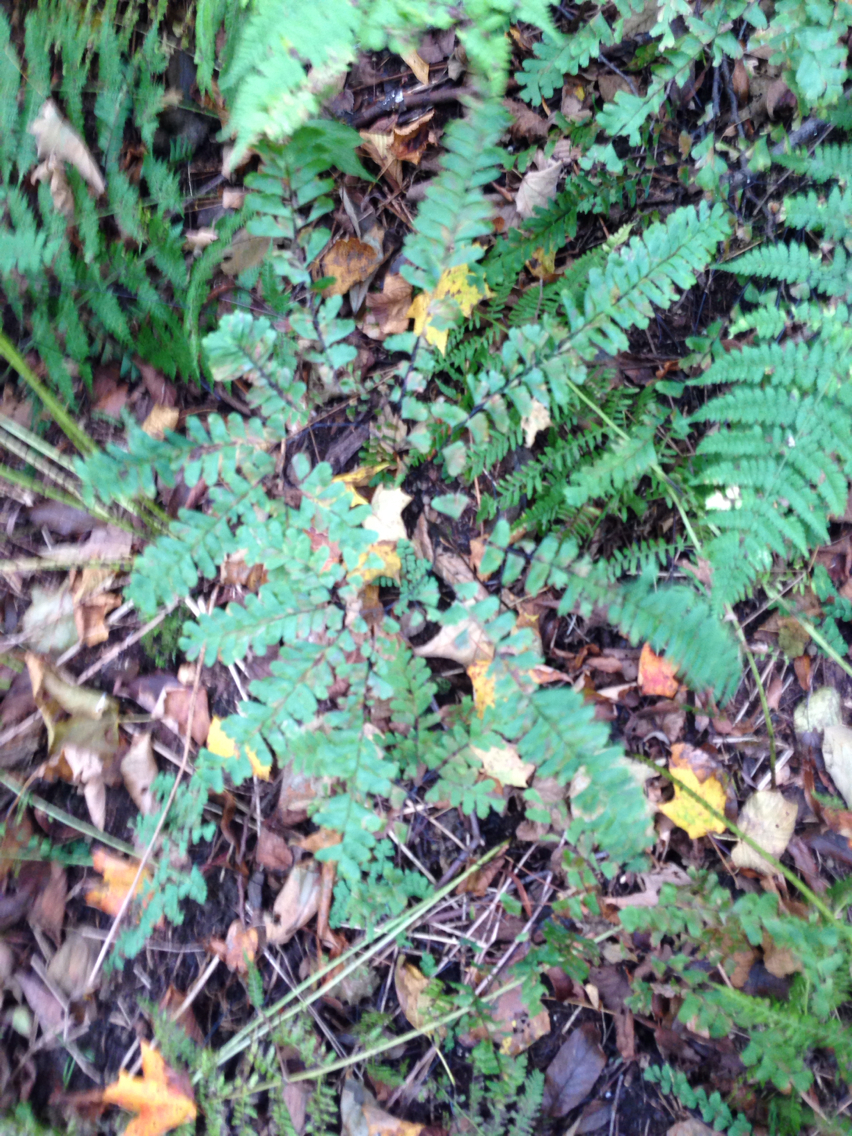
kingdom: Plantae
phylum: Tracheophyta
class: Polypodiopsida
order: Polypodiales
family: Pteridaceae
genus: Adiantum
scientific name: Adiantum pedatum
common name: Five-finger fern
